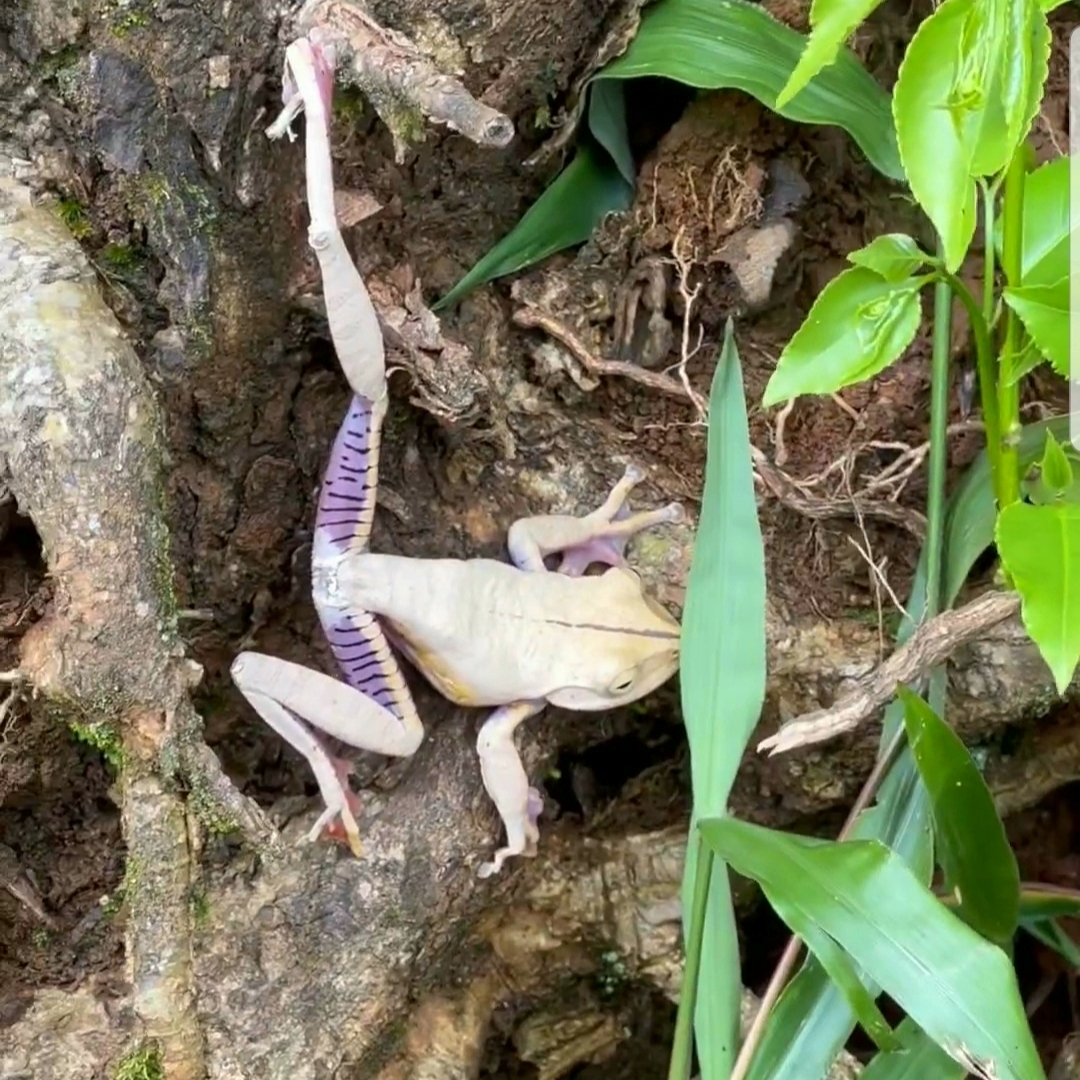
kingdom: Animalia
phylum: Chordata
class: Amphibia
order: Anura
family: Hylidae
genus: Bokermannohyla
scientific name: Bokermannohyla hylax
